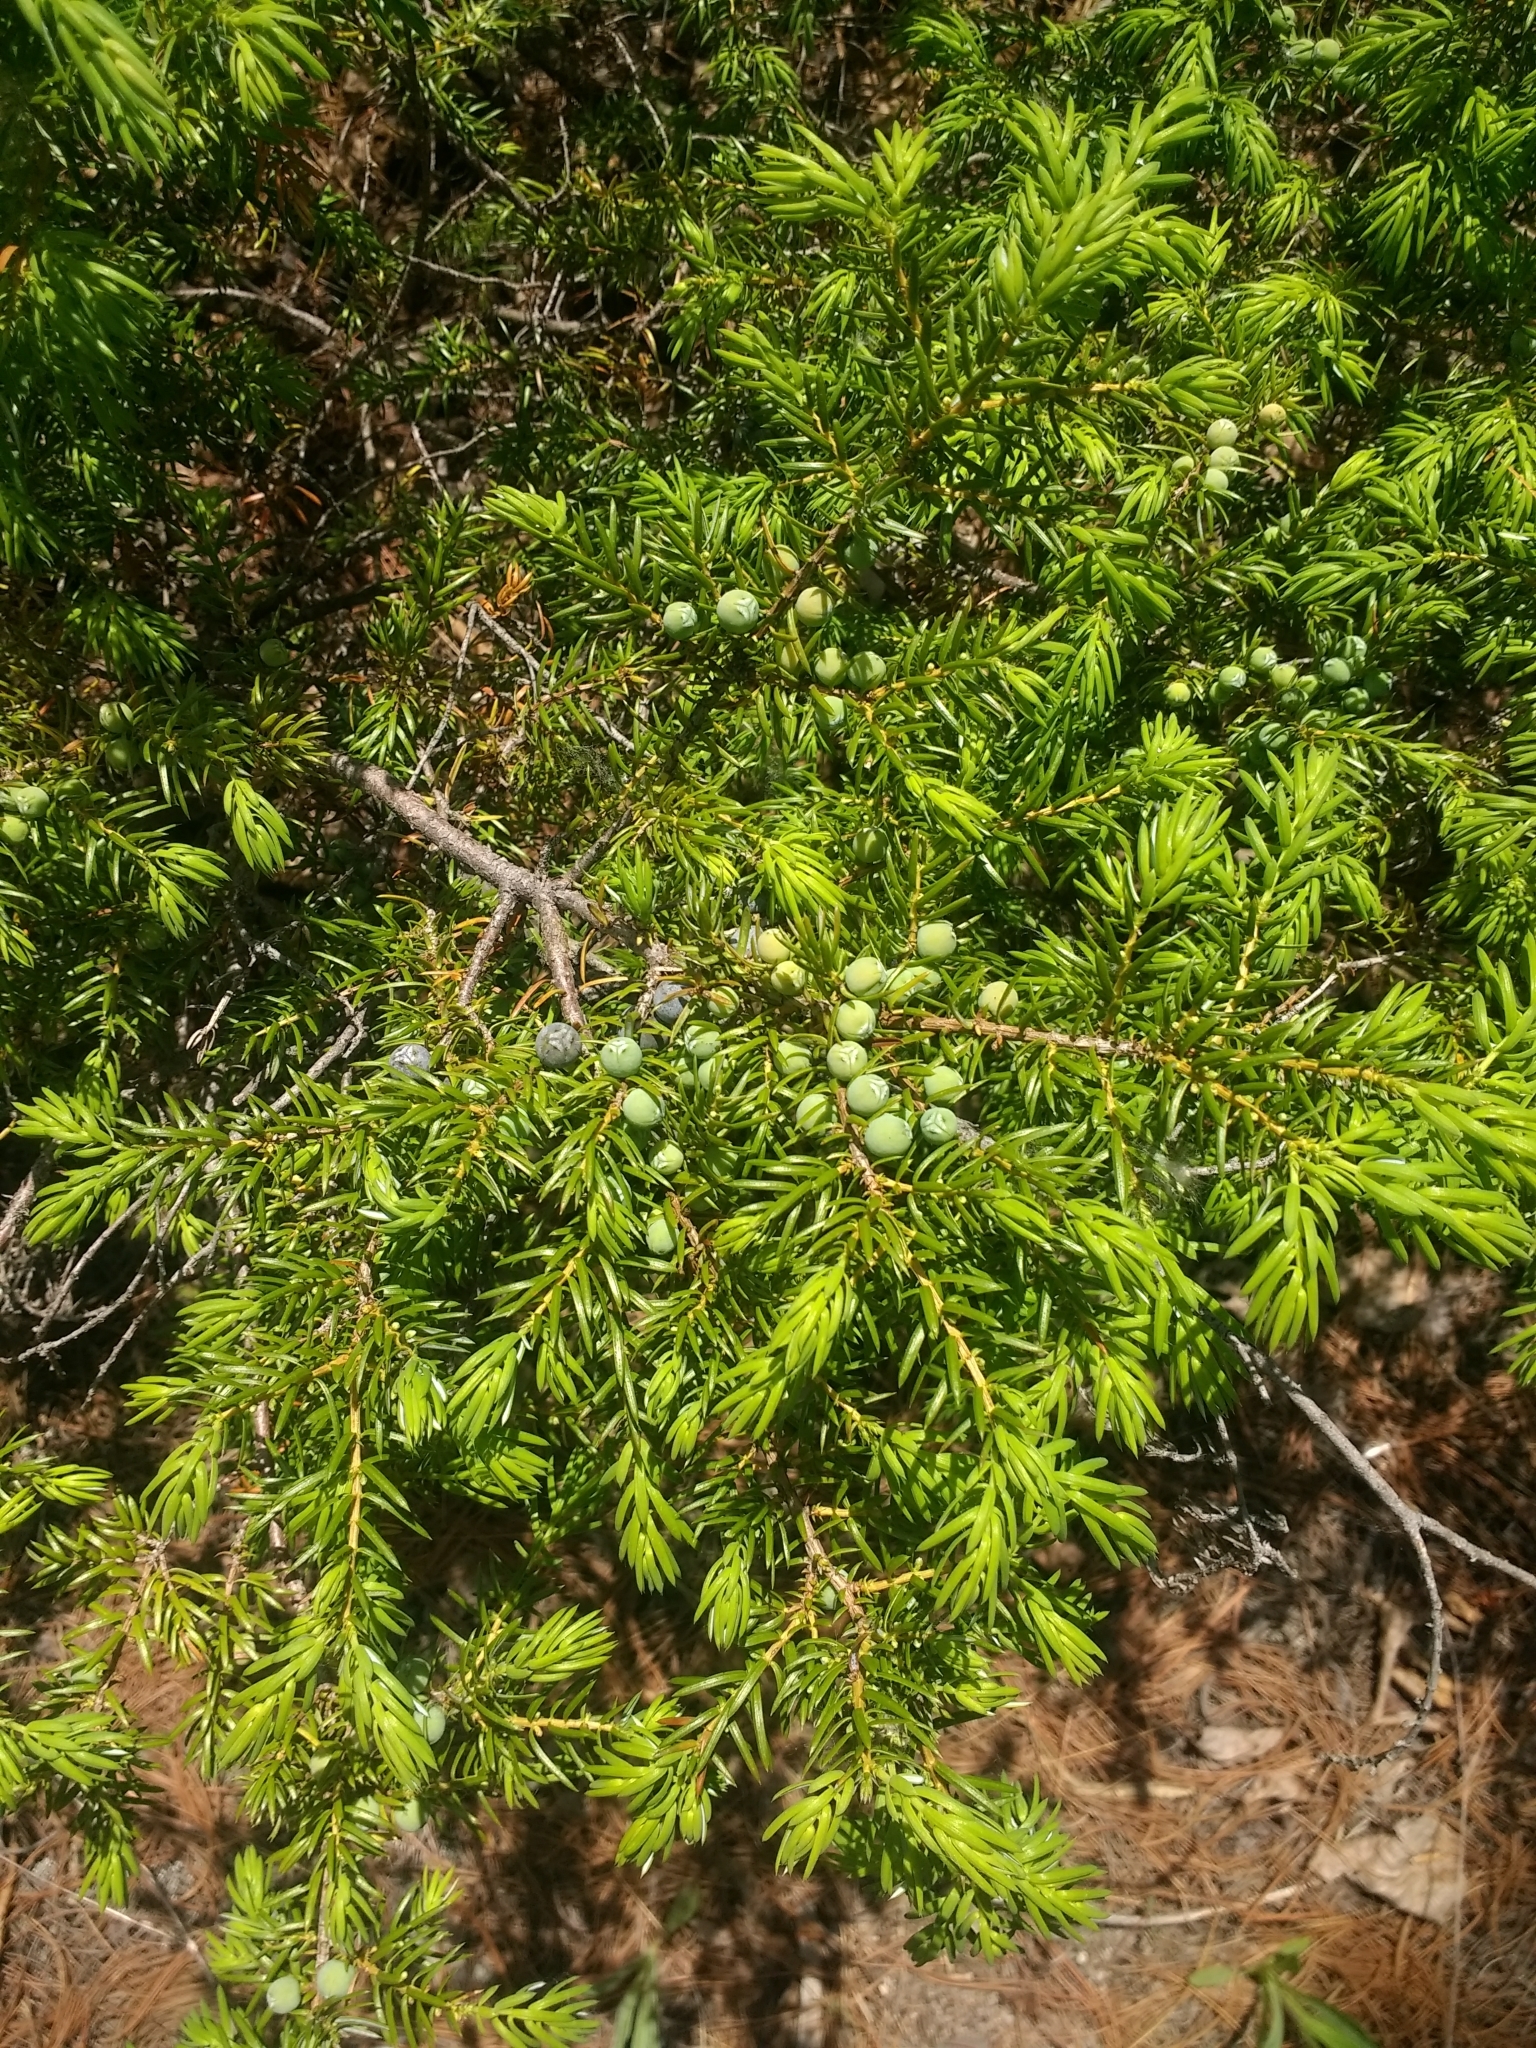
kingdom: Plantae
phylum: Tracheophyta
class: Pinopsida
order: Pinales
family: Cupressaceae
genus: Juniperus
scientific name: Juniperus communis
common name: Common juniper
